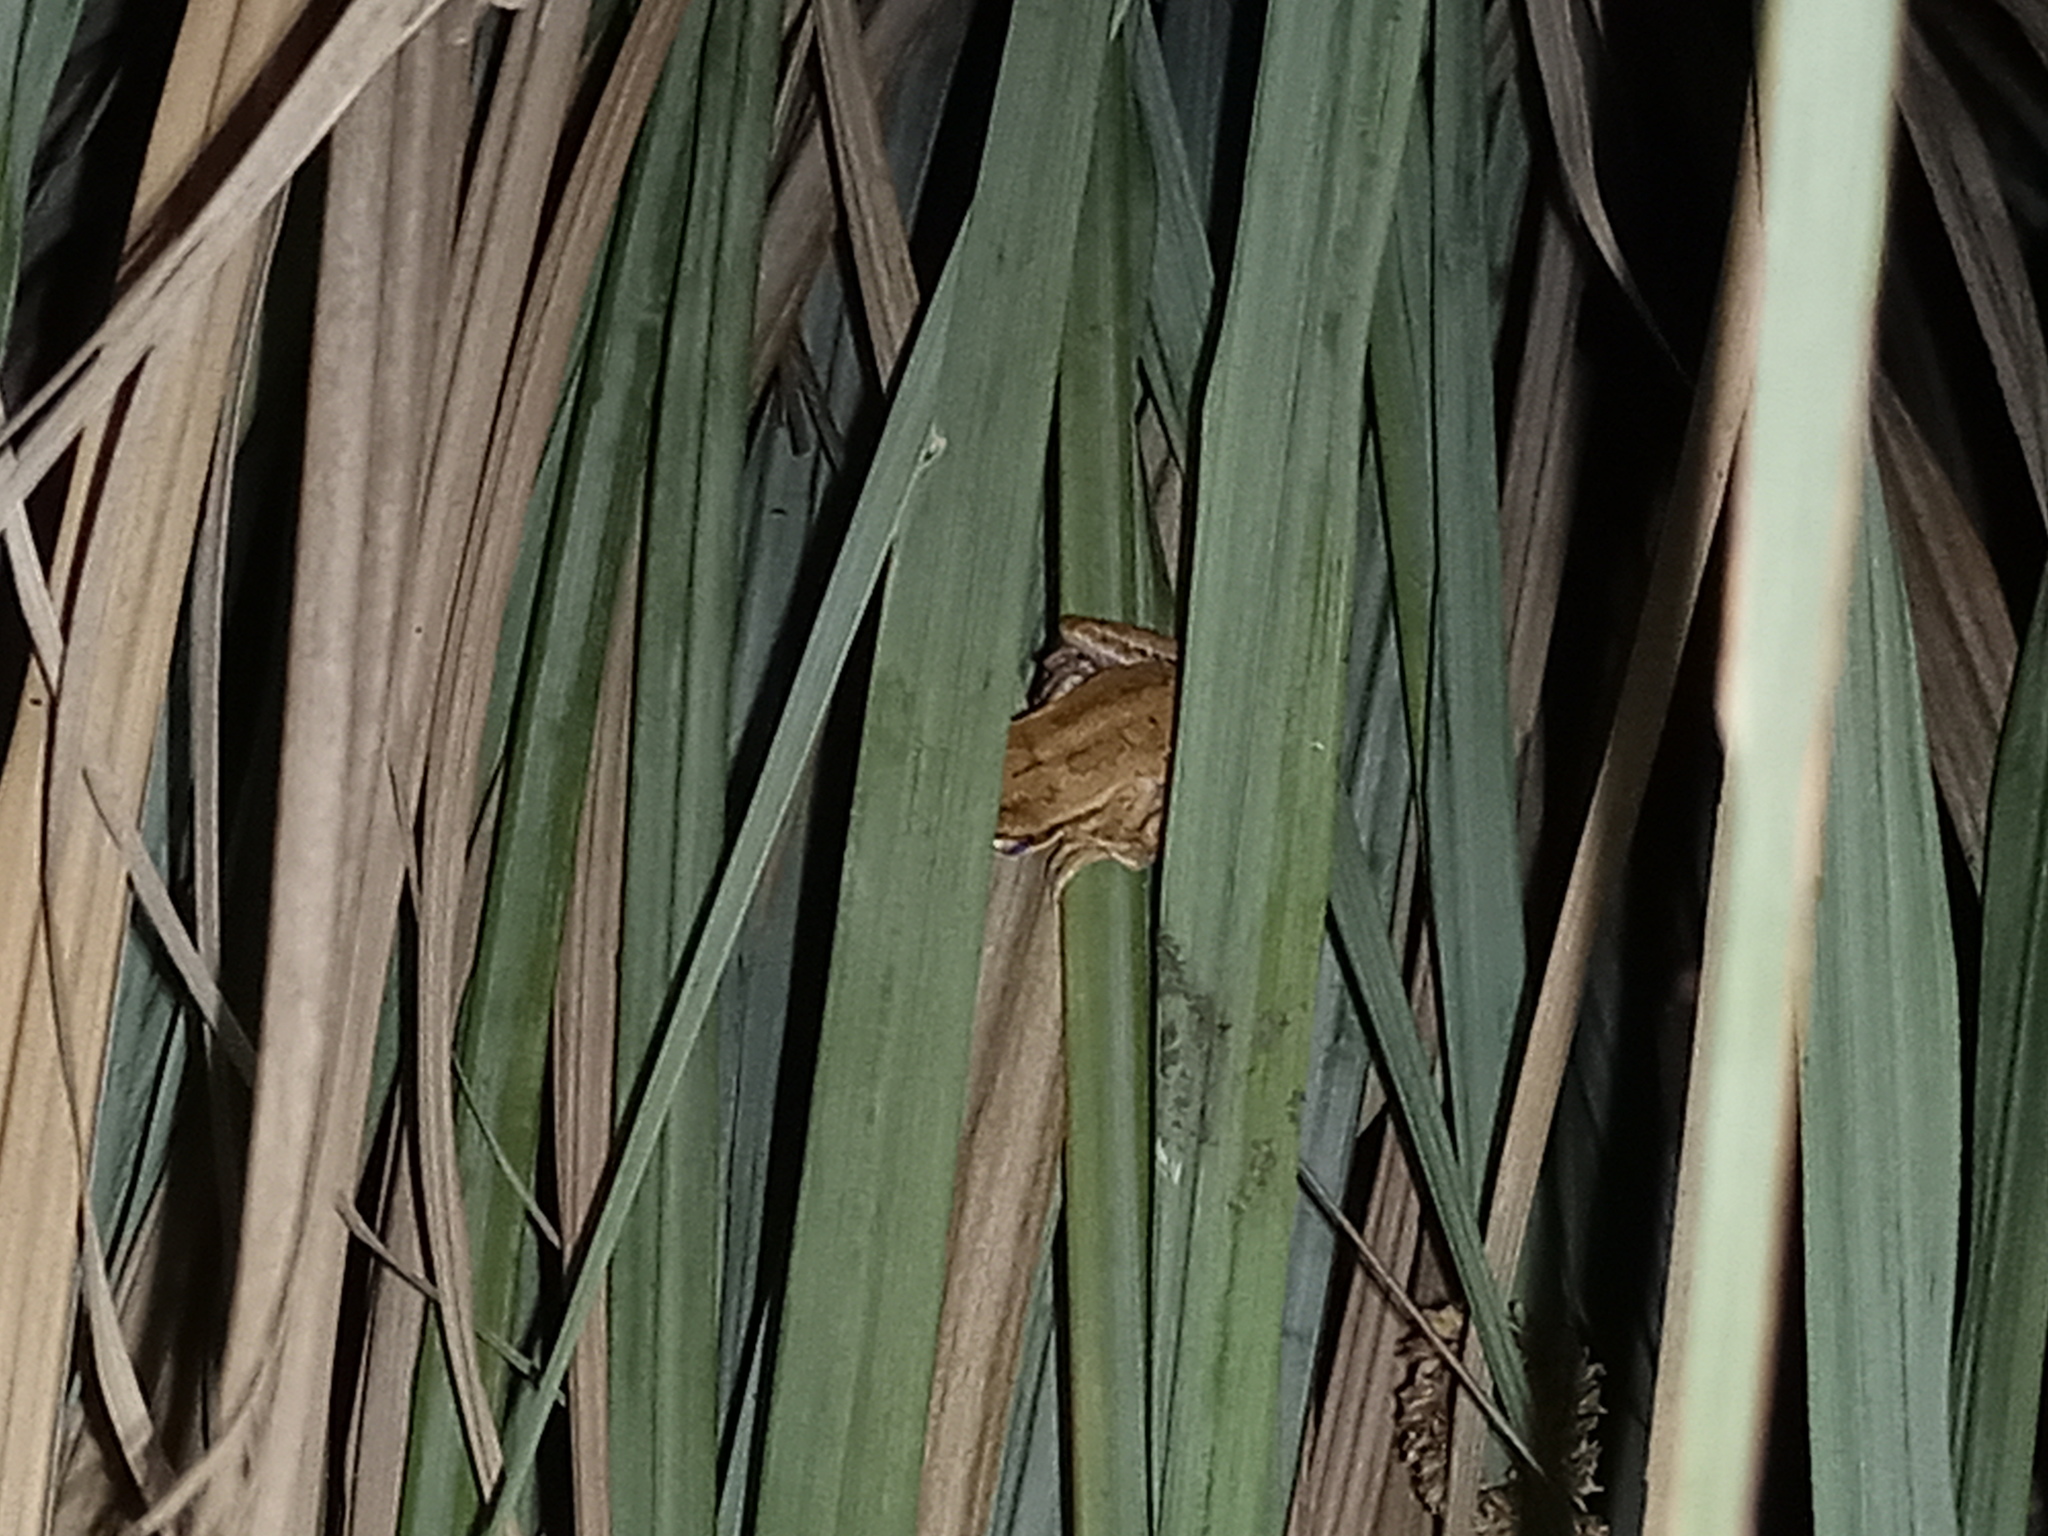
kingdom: Animalia
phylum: Chordata
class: Amphibia
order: Anura
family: Hylidae
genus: Boana
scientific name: Boana pulchella
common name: Montevideo treefrog
